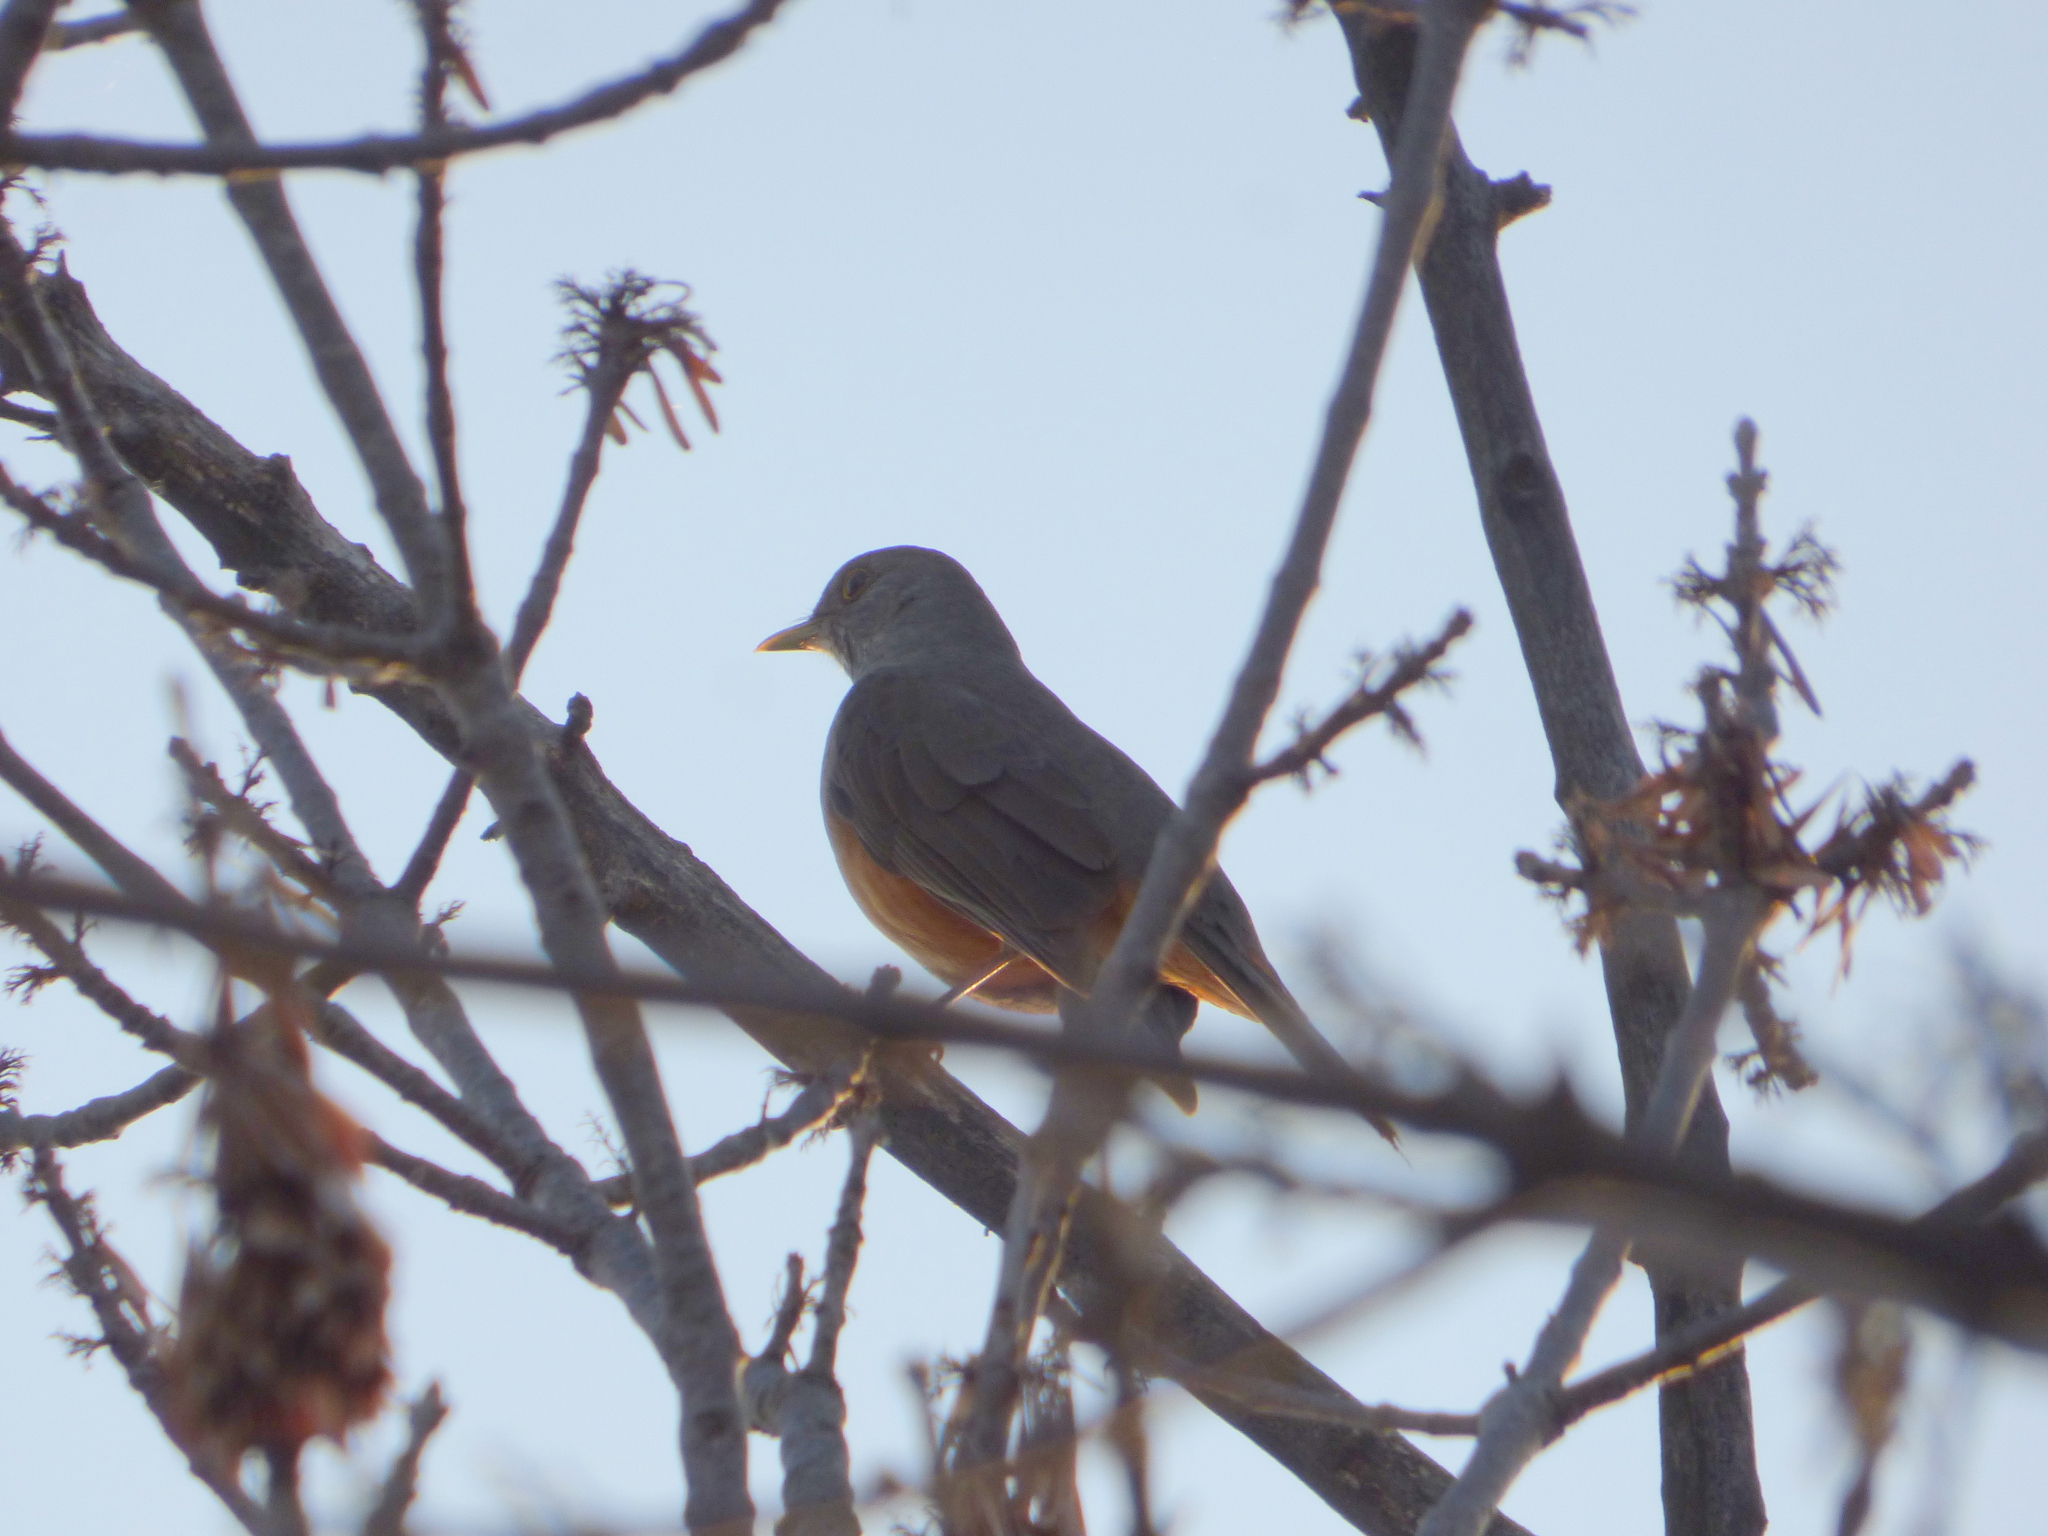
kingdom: Animalia
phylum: Chordata
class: Aves
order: Passeriformes
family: Turdidae
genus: Turdus
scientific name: Turdus rufiventris
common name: Rufous-bellied thrush
